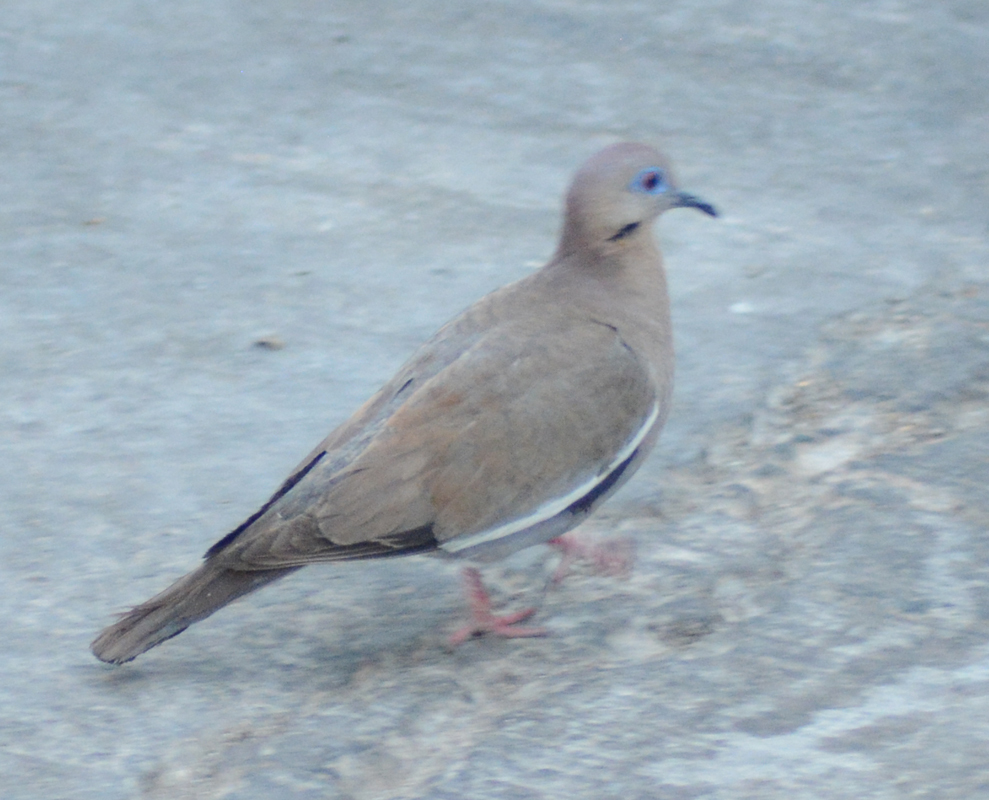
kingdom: Animalia
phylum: Chordata
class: Aves
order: Columbiformes
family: Columbidae
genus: Zenaida
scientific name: Zenaida asiatica
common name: White-winged dove
